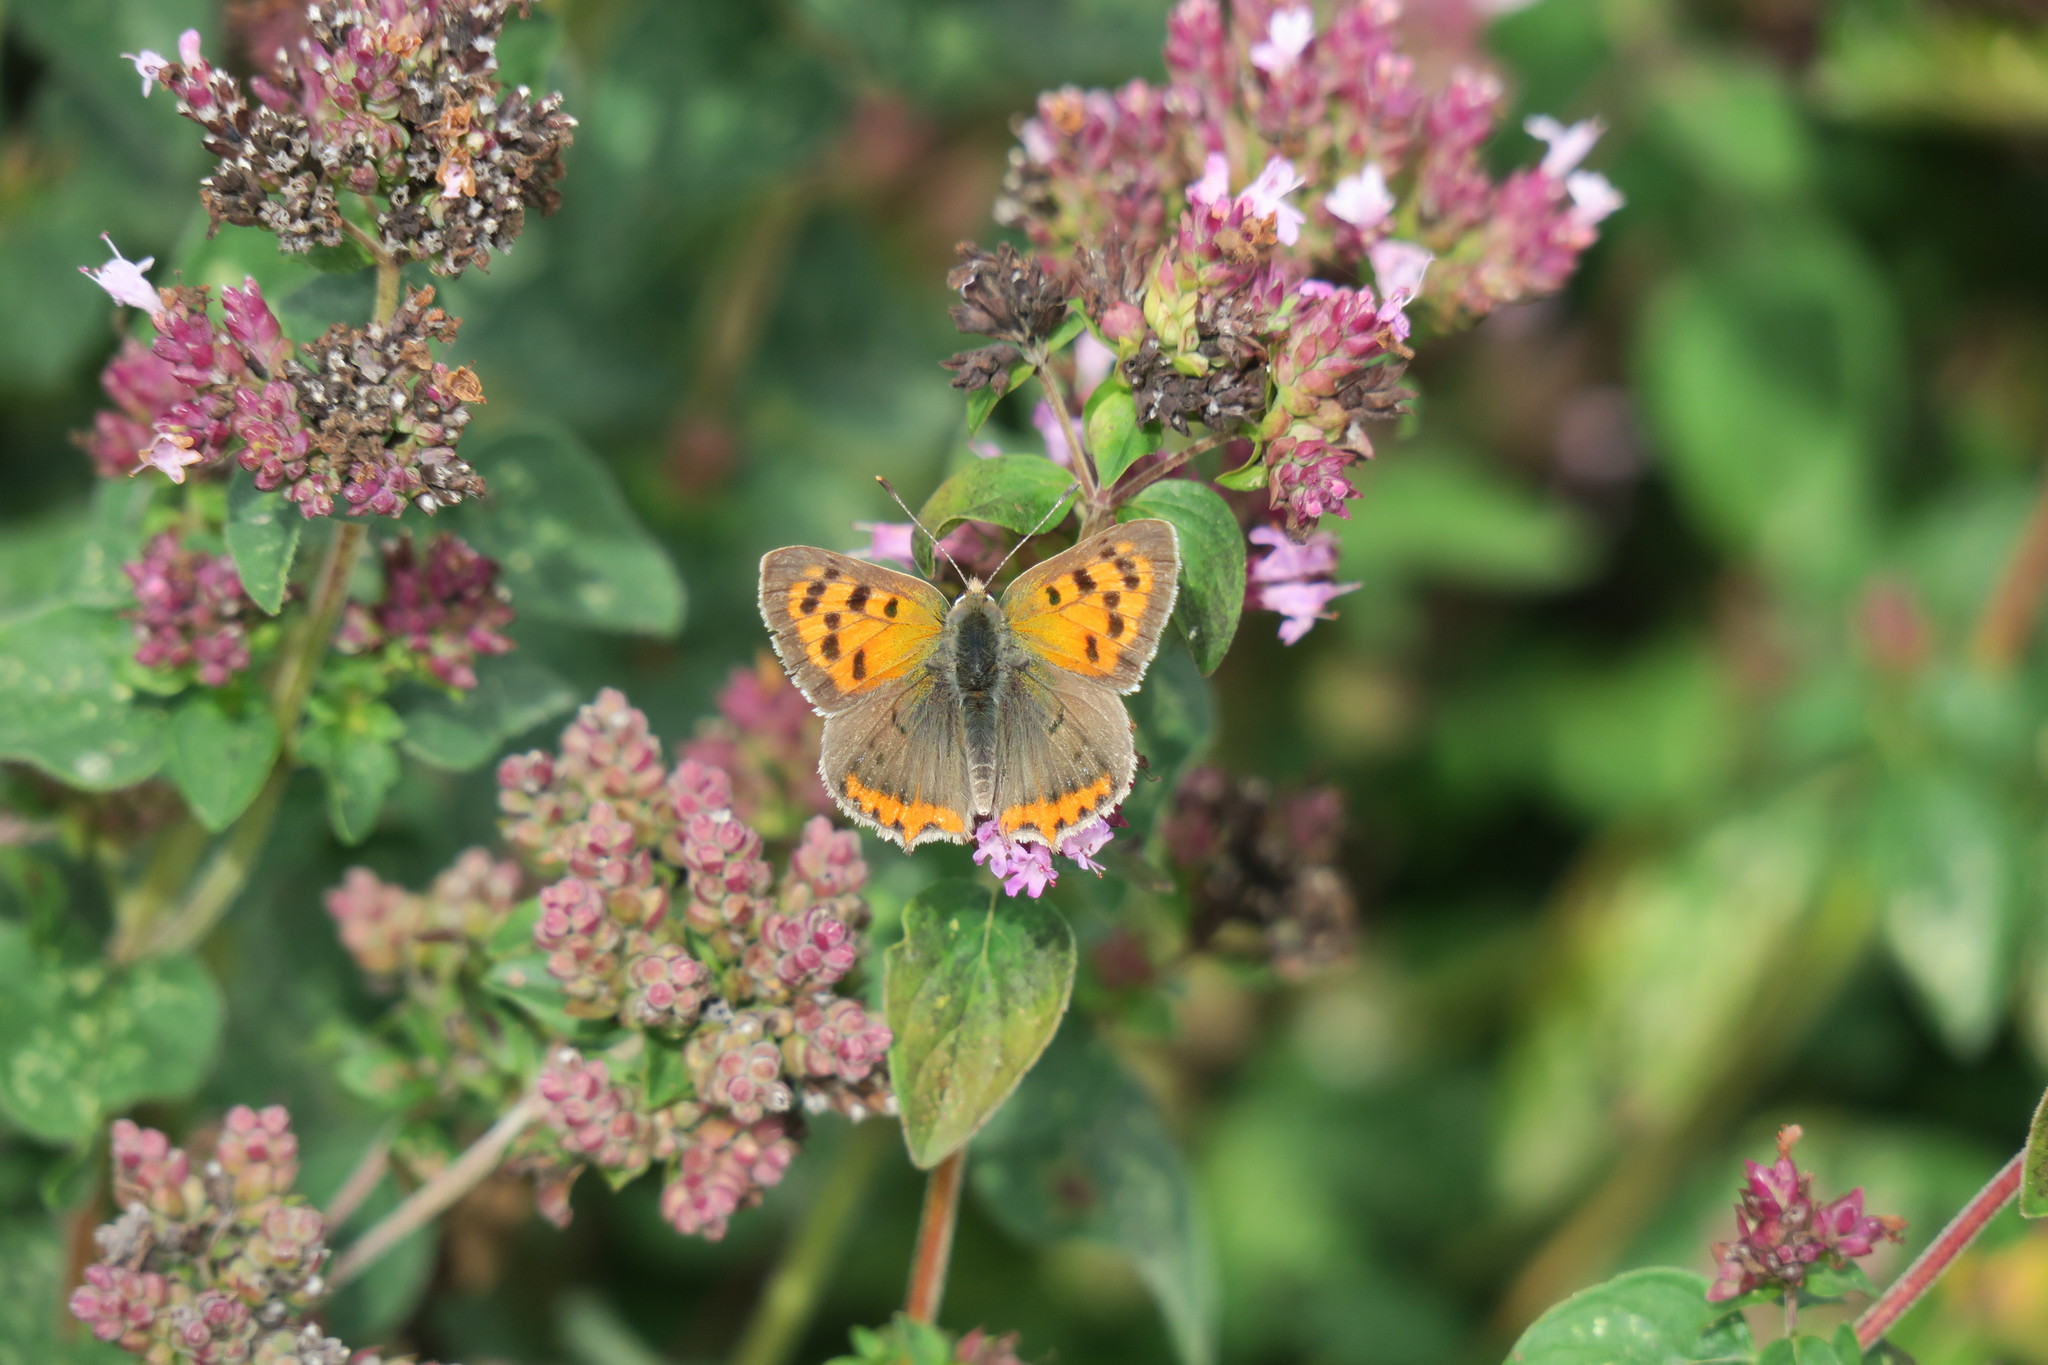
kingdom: Animalia
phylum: Arthropoda
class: Insecta
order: Lepidoptera
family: Lycaenidae
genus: Lycaena
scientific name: Lycaena phlaeas
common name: Small copper
